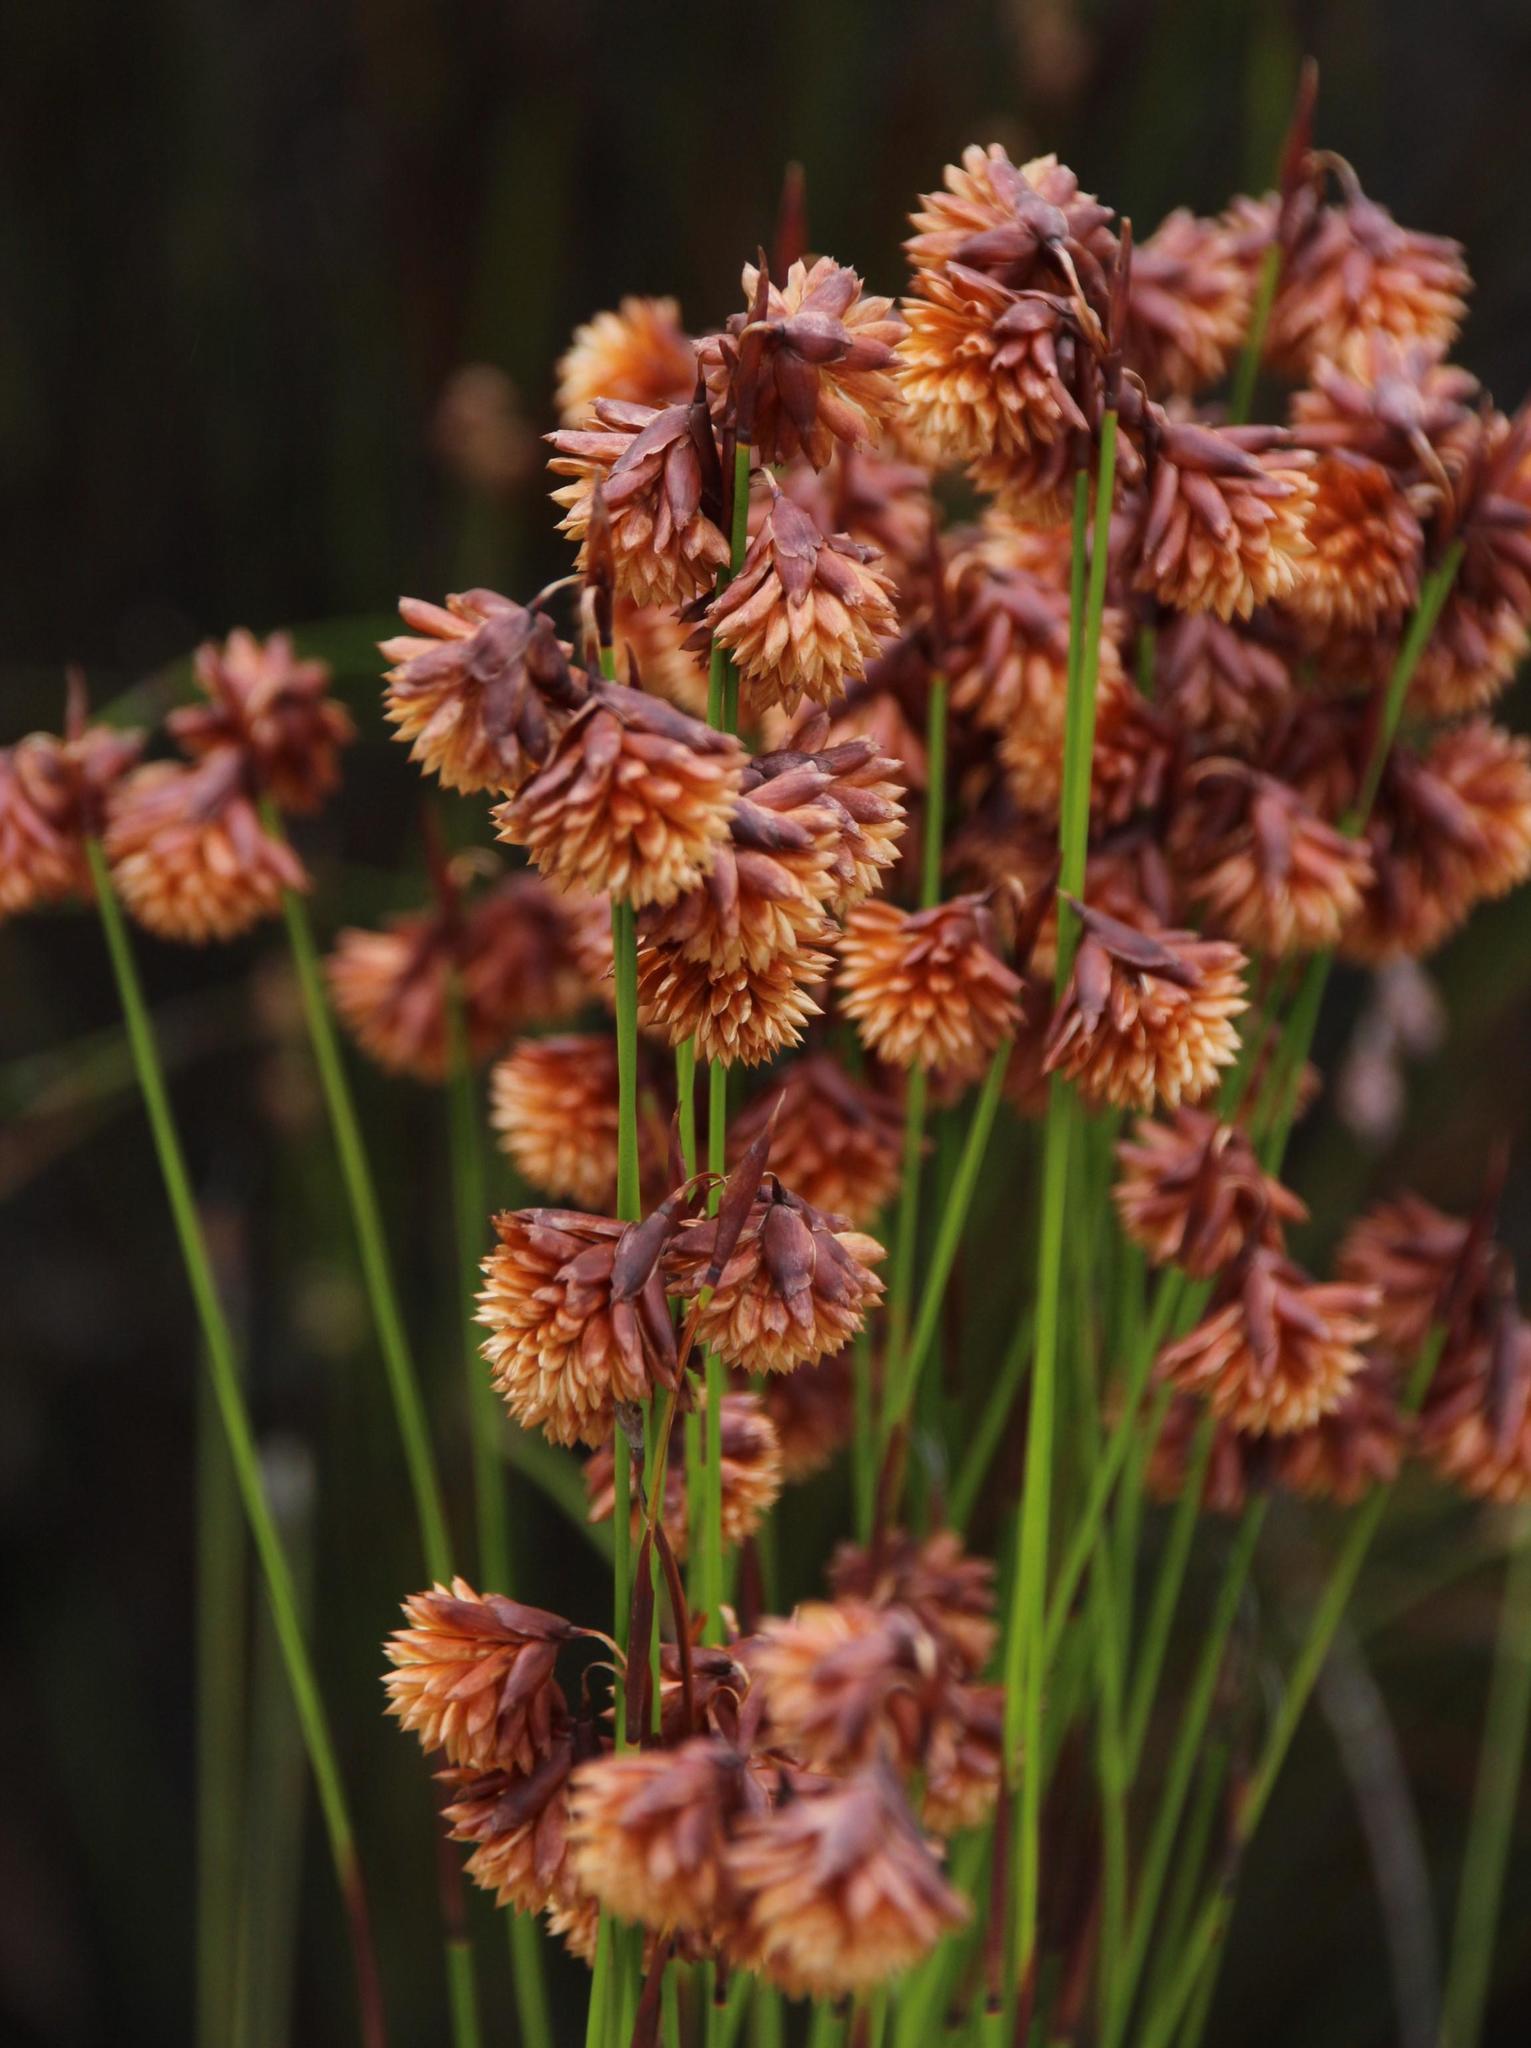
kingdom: Plantae
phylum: Tracheophyta
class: Liliopsida
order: Poales
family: Restionaceae
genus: Staberoha
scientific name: Staberoha cernua
